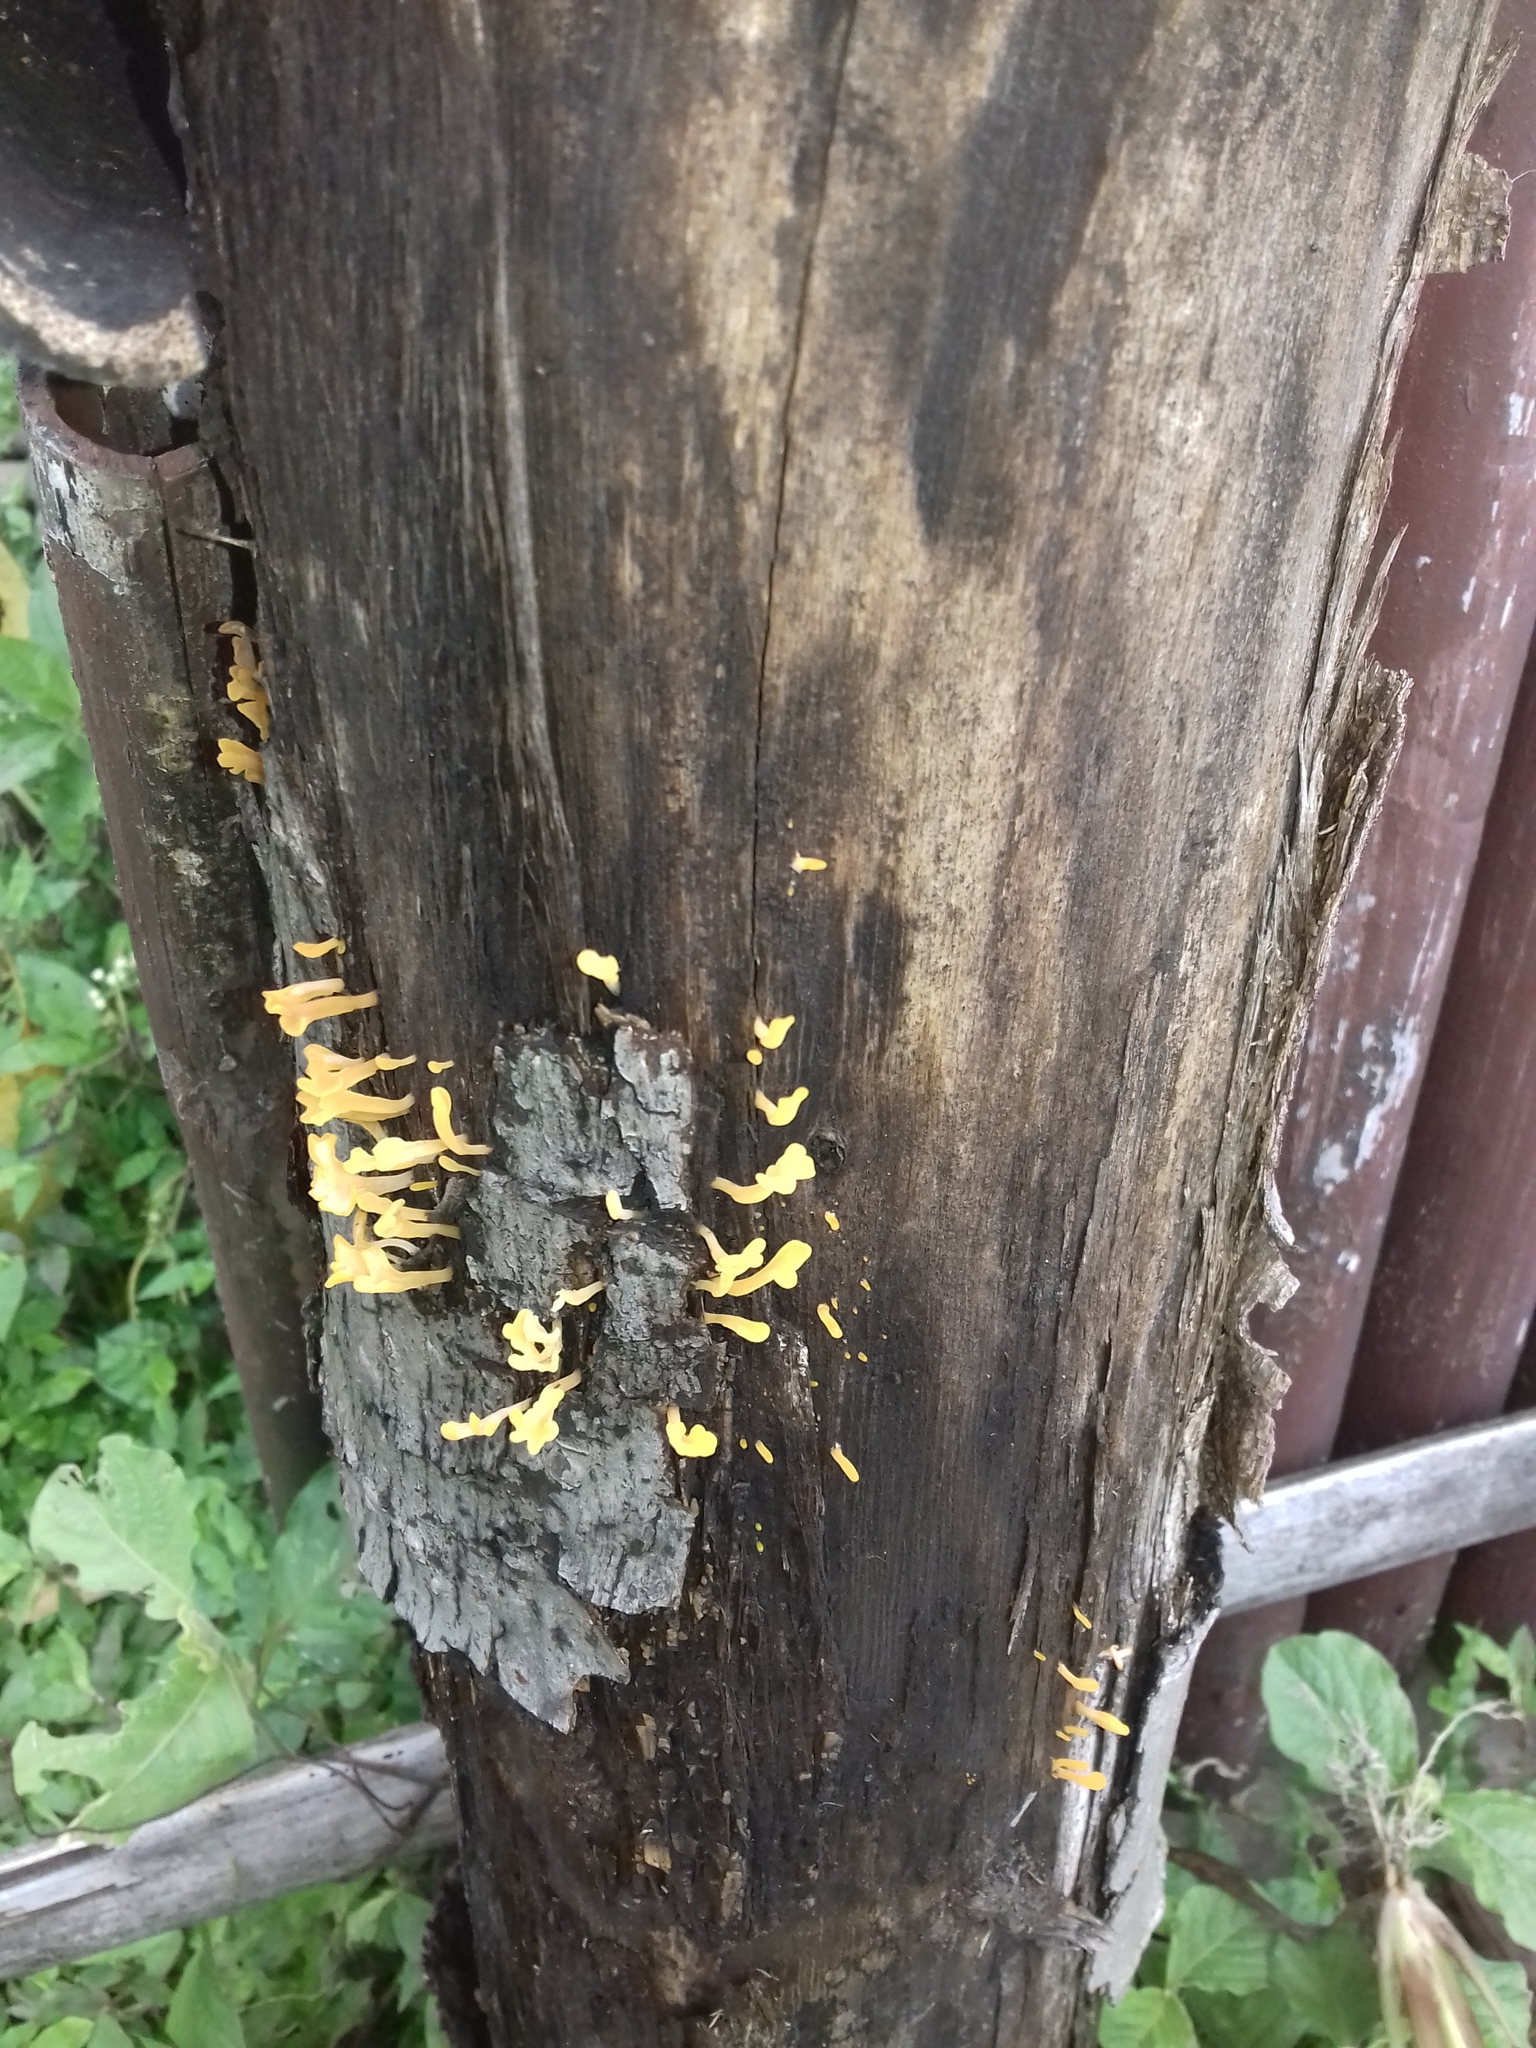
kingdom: Fungi
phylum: Basidiomycota
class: Dacrymycetes
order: Dacrymycetales
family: Dacrymycetaceae
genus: Dacrymyces
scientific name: Dacrymyces spathularius
